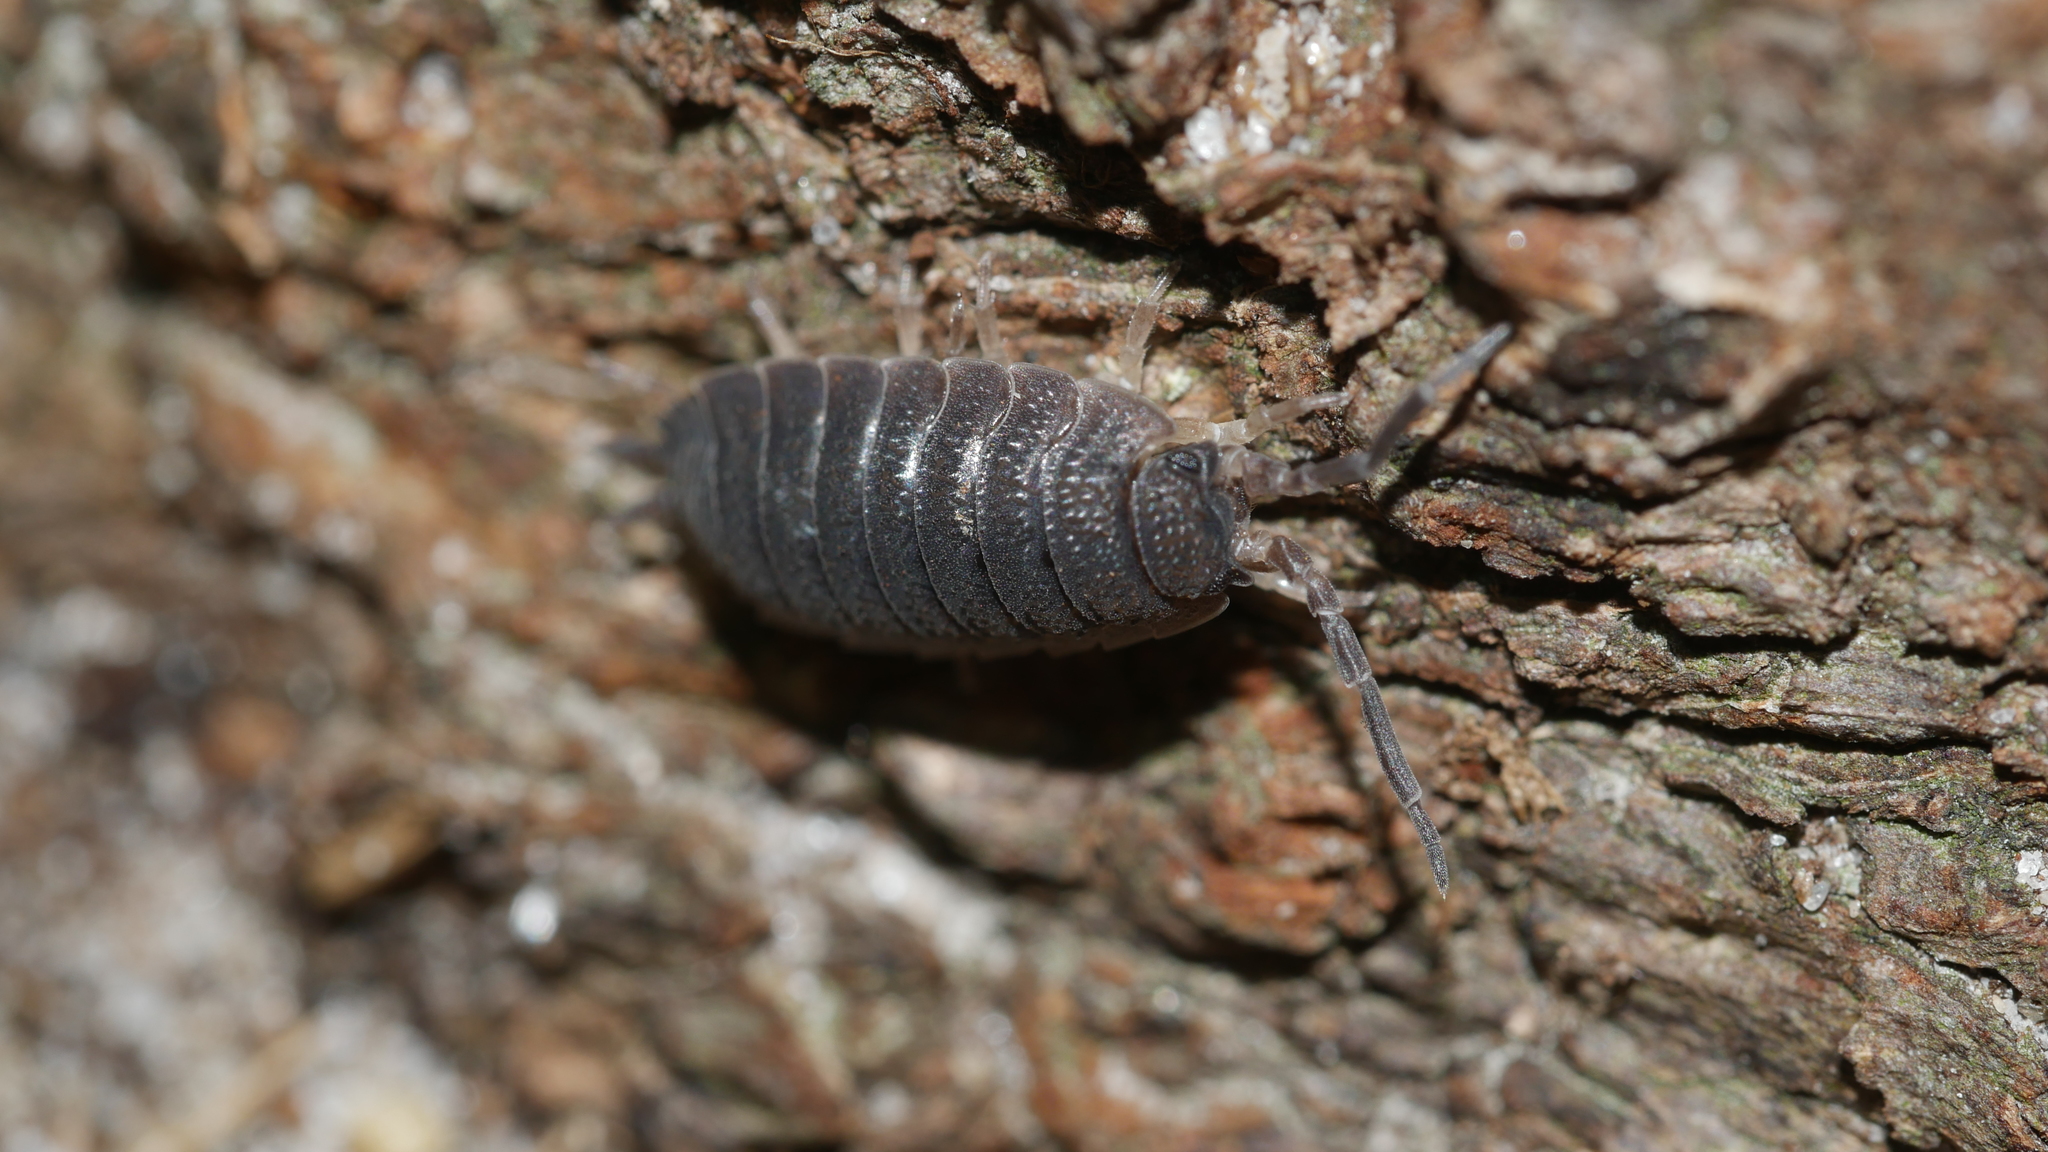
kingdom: Animalia
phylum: Arthropoda
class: Malacostraca
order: Isopoda
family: Porcellionidae
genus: Porcellio
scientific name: Porcellio scaber
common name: Common rough woodlouse
